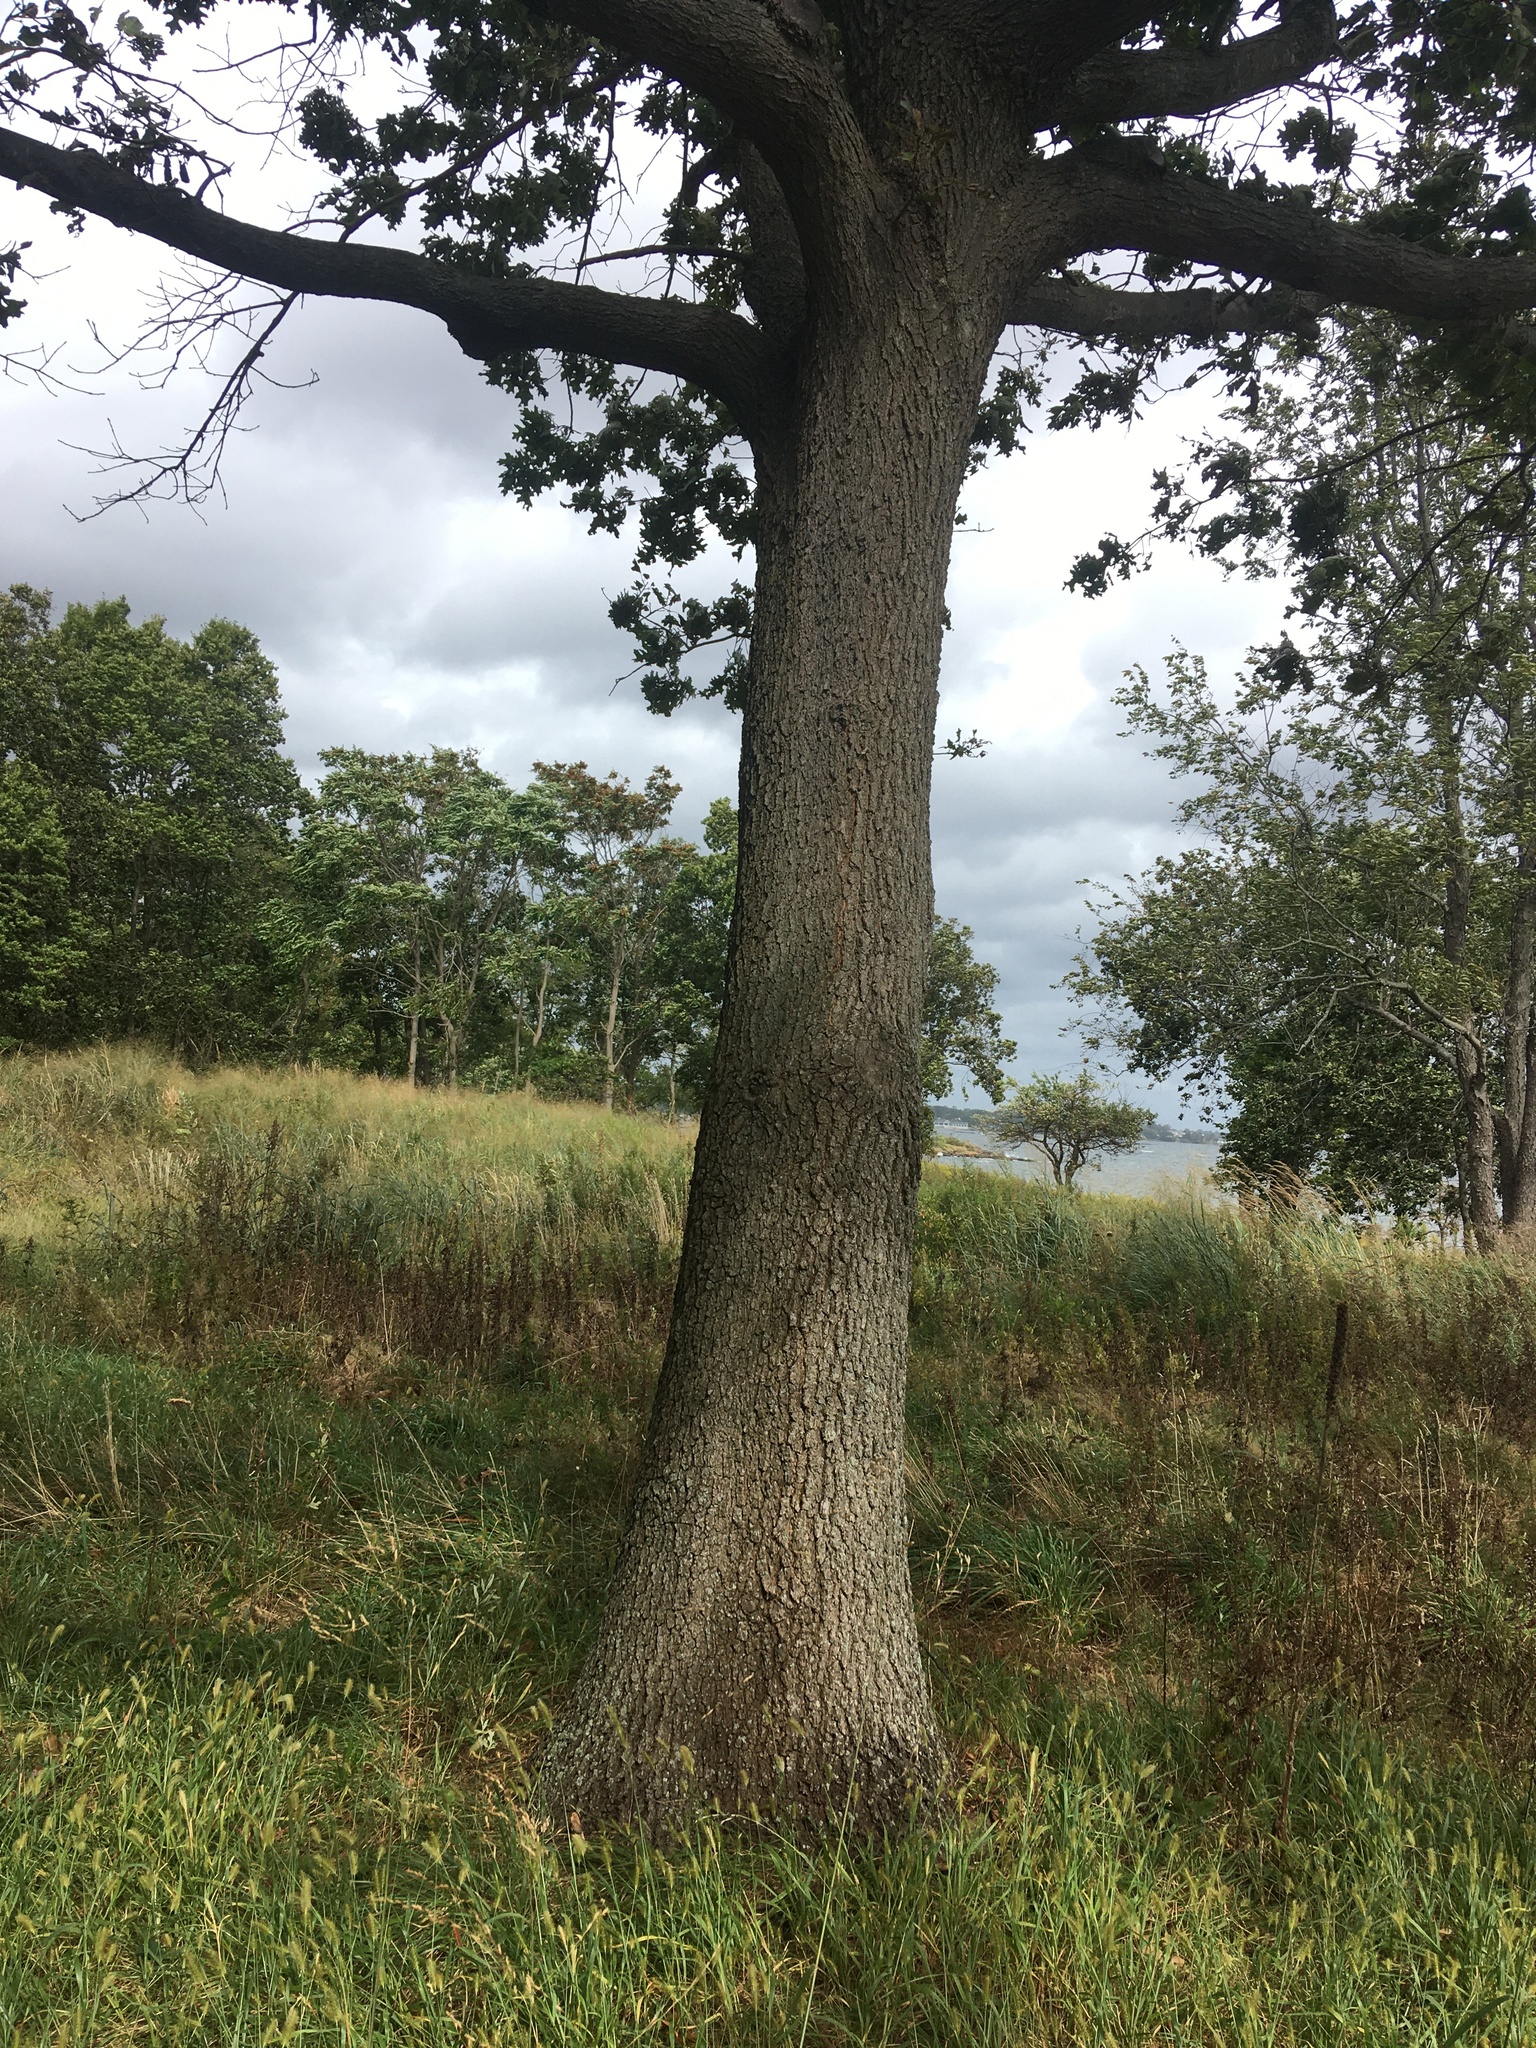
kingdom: Plantae
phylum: Tracheophyta
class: Magnoliopsida
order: Fagales
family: Fagaceae
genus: Quercus
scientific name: Quercus velutina
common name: Black oak
